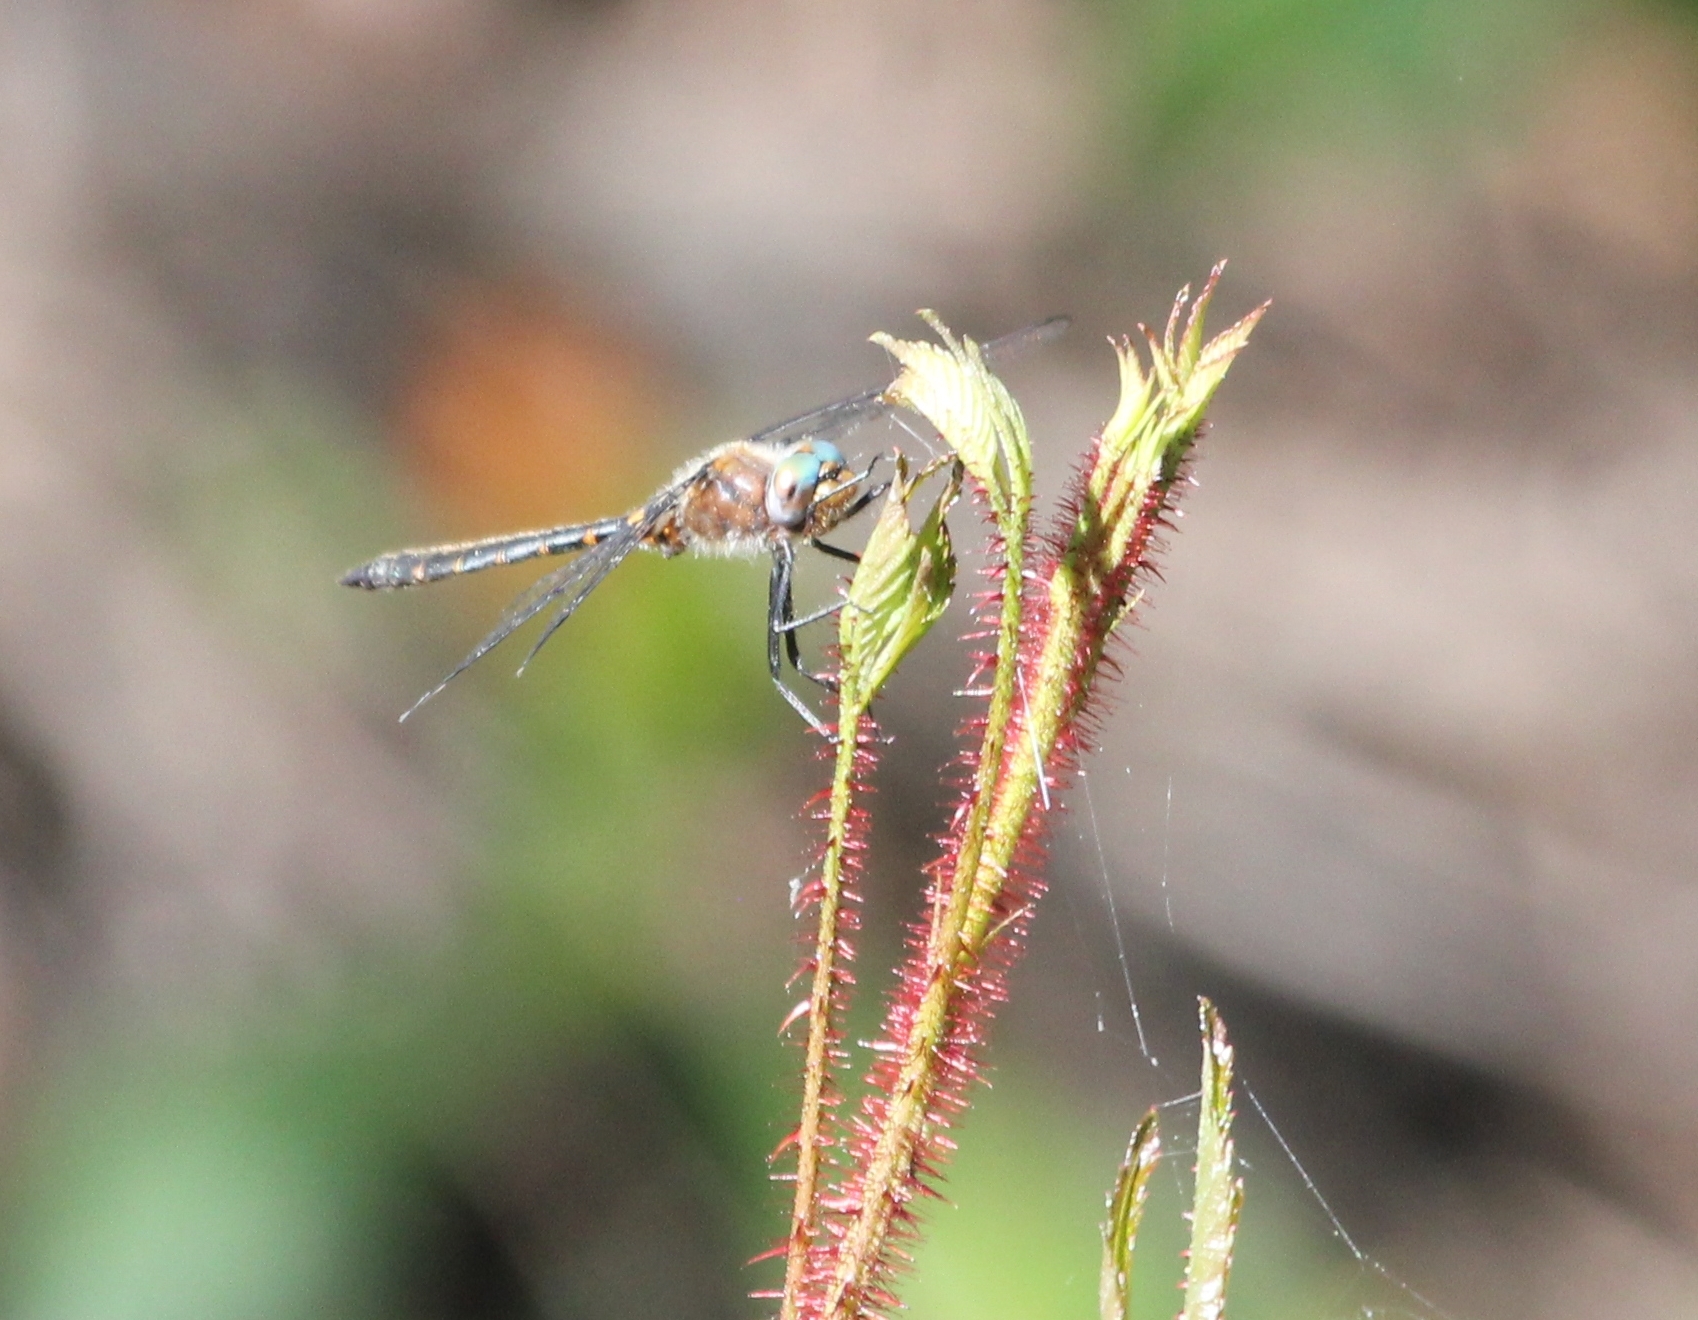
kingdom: Animalia
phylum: Arthropoda
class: Insecta
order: Odonata
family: Corduliidae
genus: Helocordulia
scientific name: Helocordulia selysii
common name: Selys's sundragon
